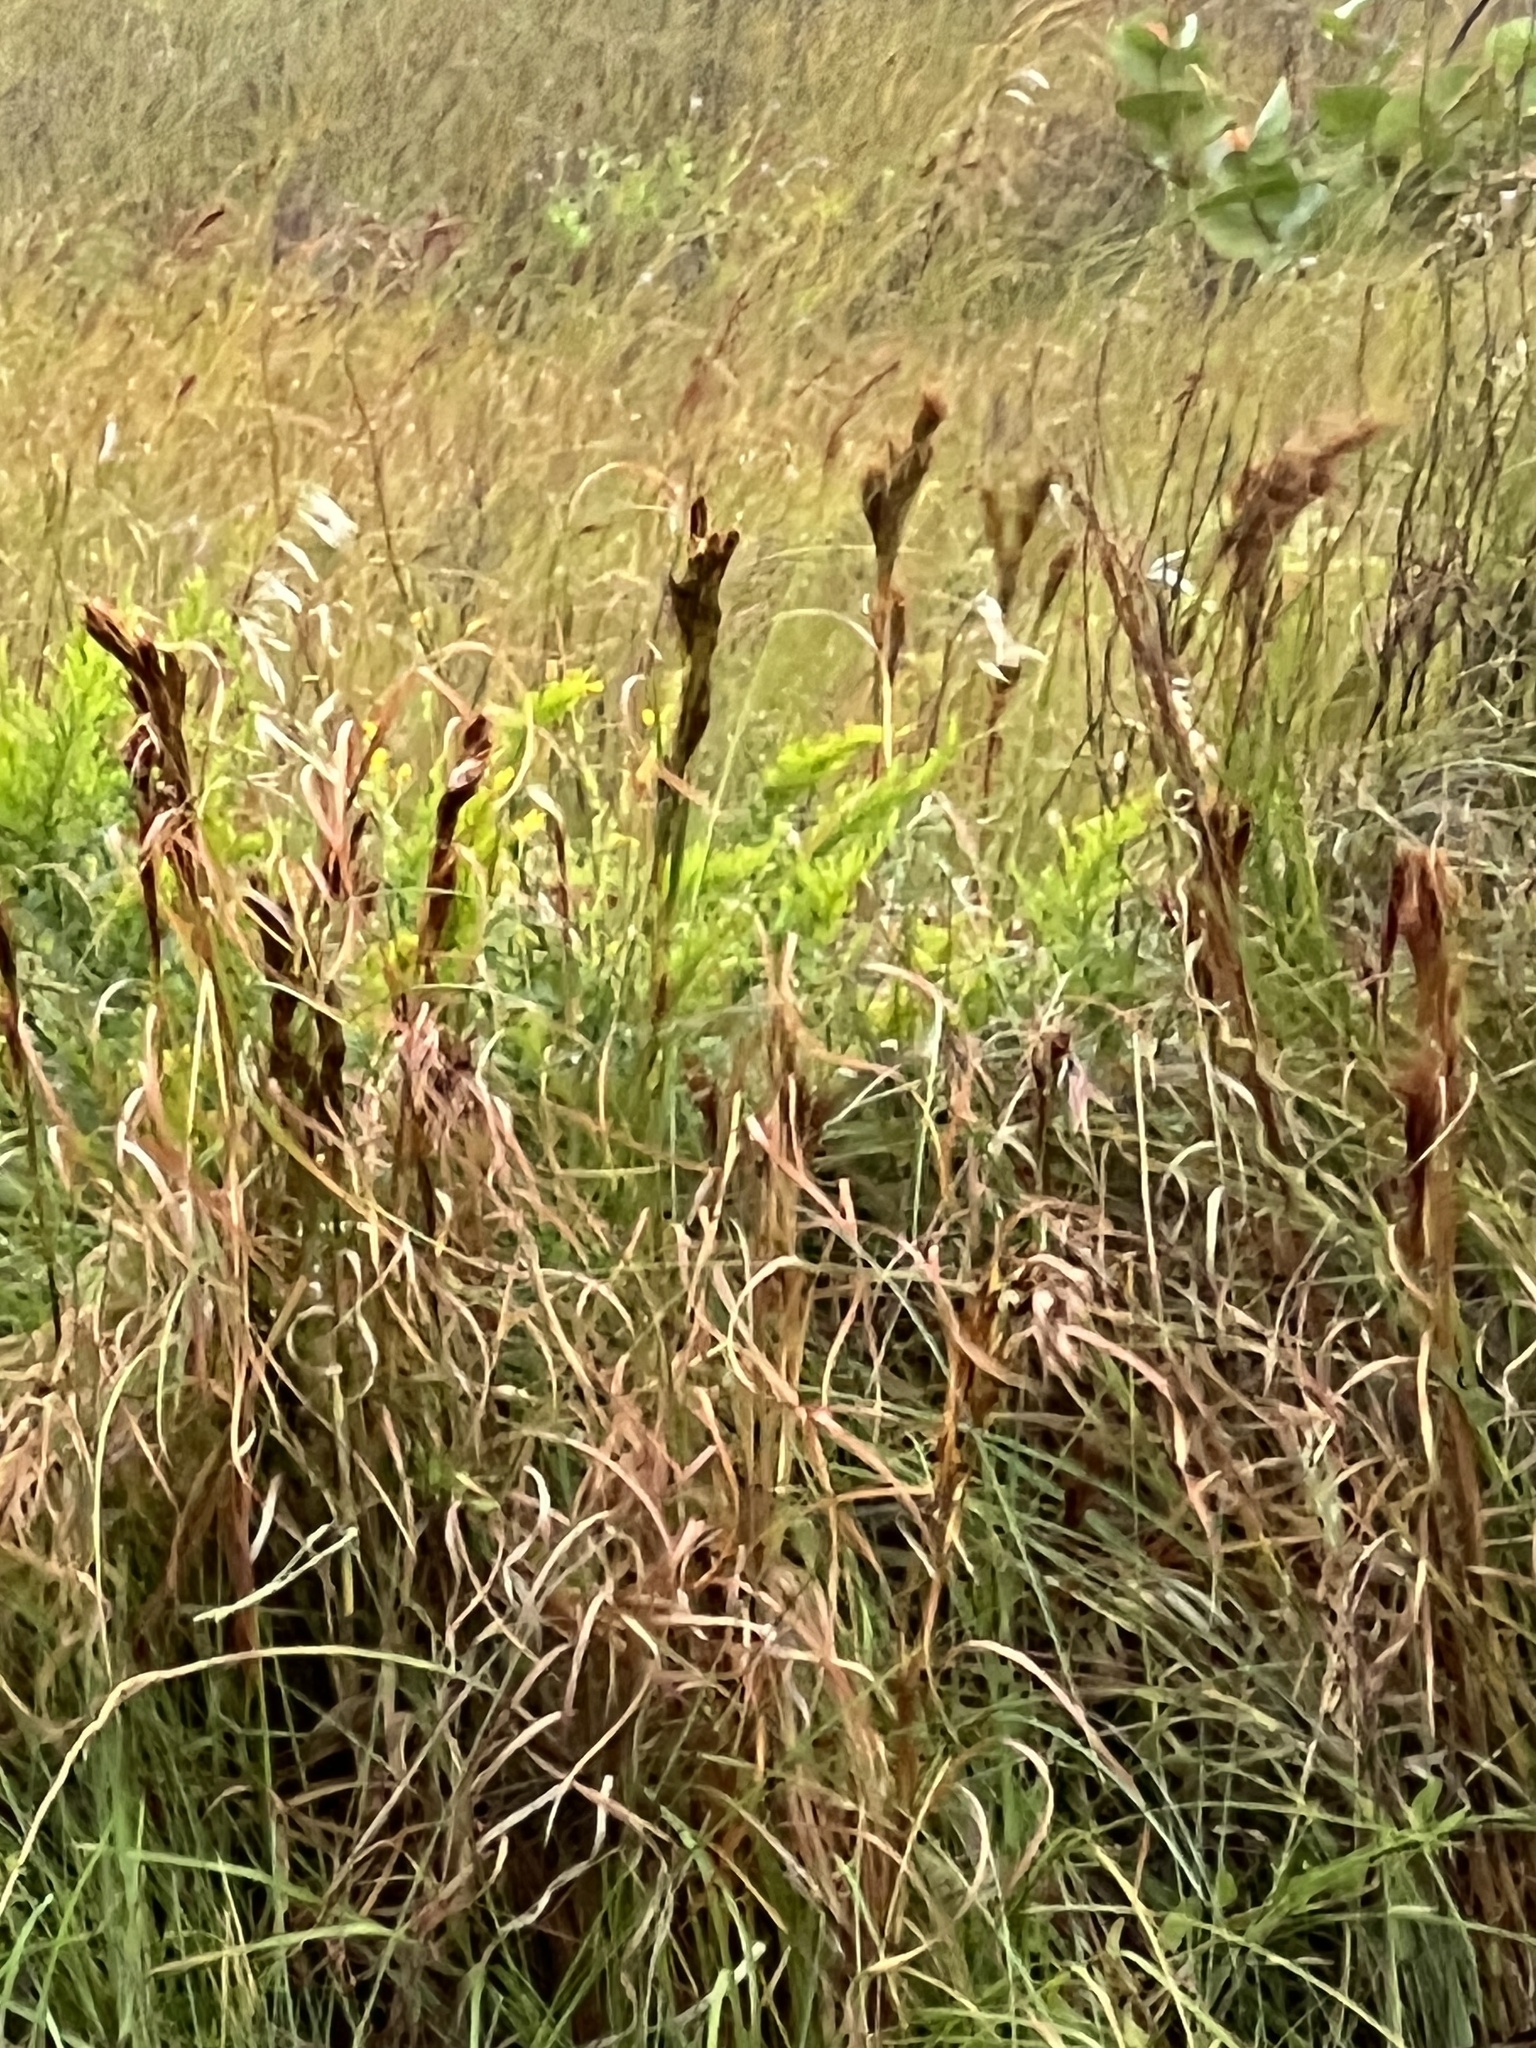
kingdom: Plantae
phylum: Tracheophyta
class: Liliopsida
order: Poales
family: Poaceae
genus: Andropogon
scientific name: Andropogon tenuispatheus
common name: Bushy bluestem
